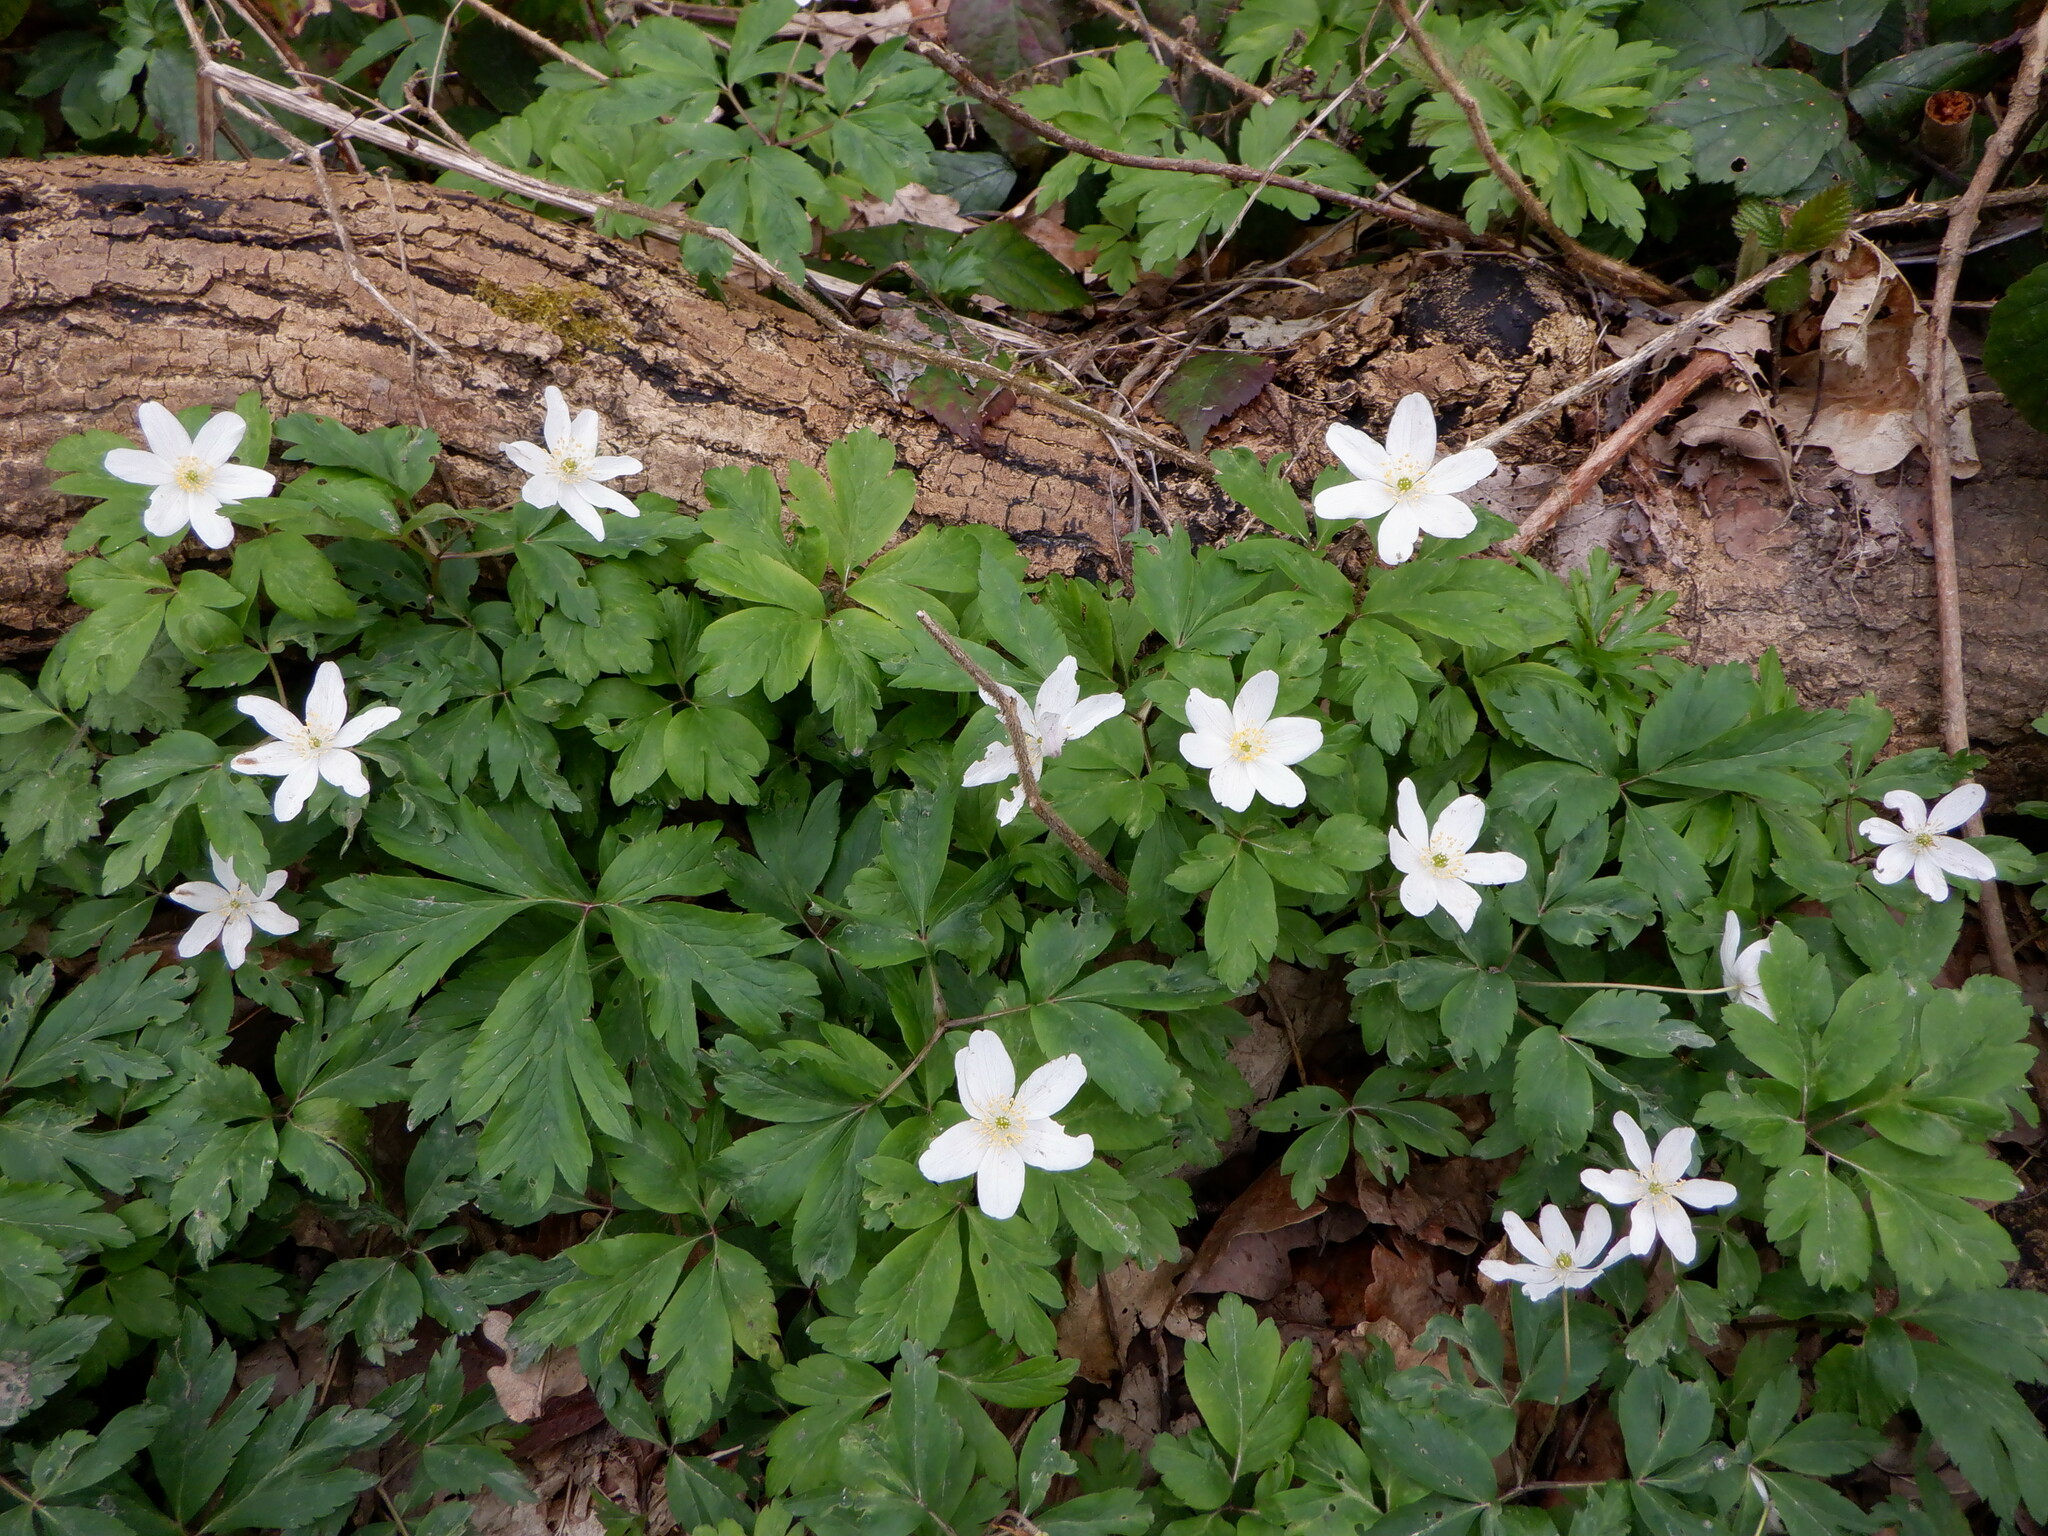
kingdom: Plantae
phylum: Tracheophyta
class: Magnoliopsida
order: Ranunculales
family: Ranunculaceae
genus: Anemone
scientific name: Anemone nemorosa
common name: Wood anemone
